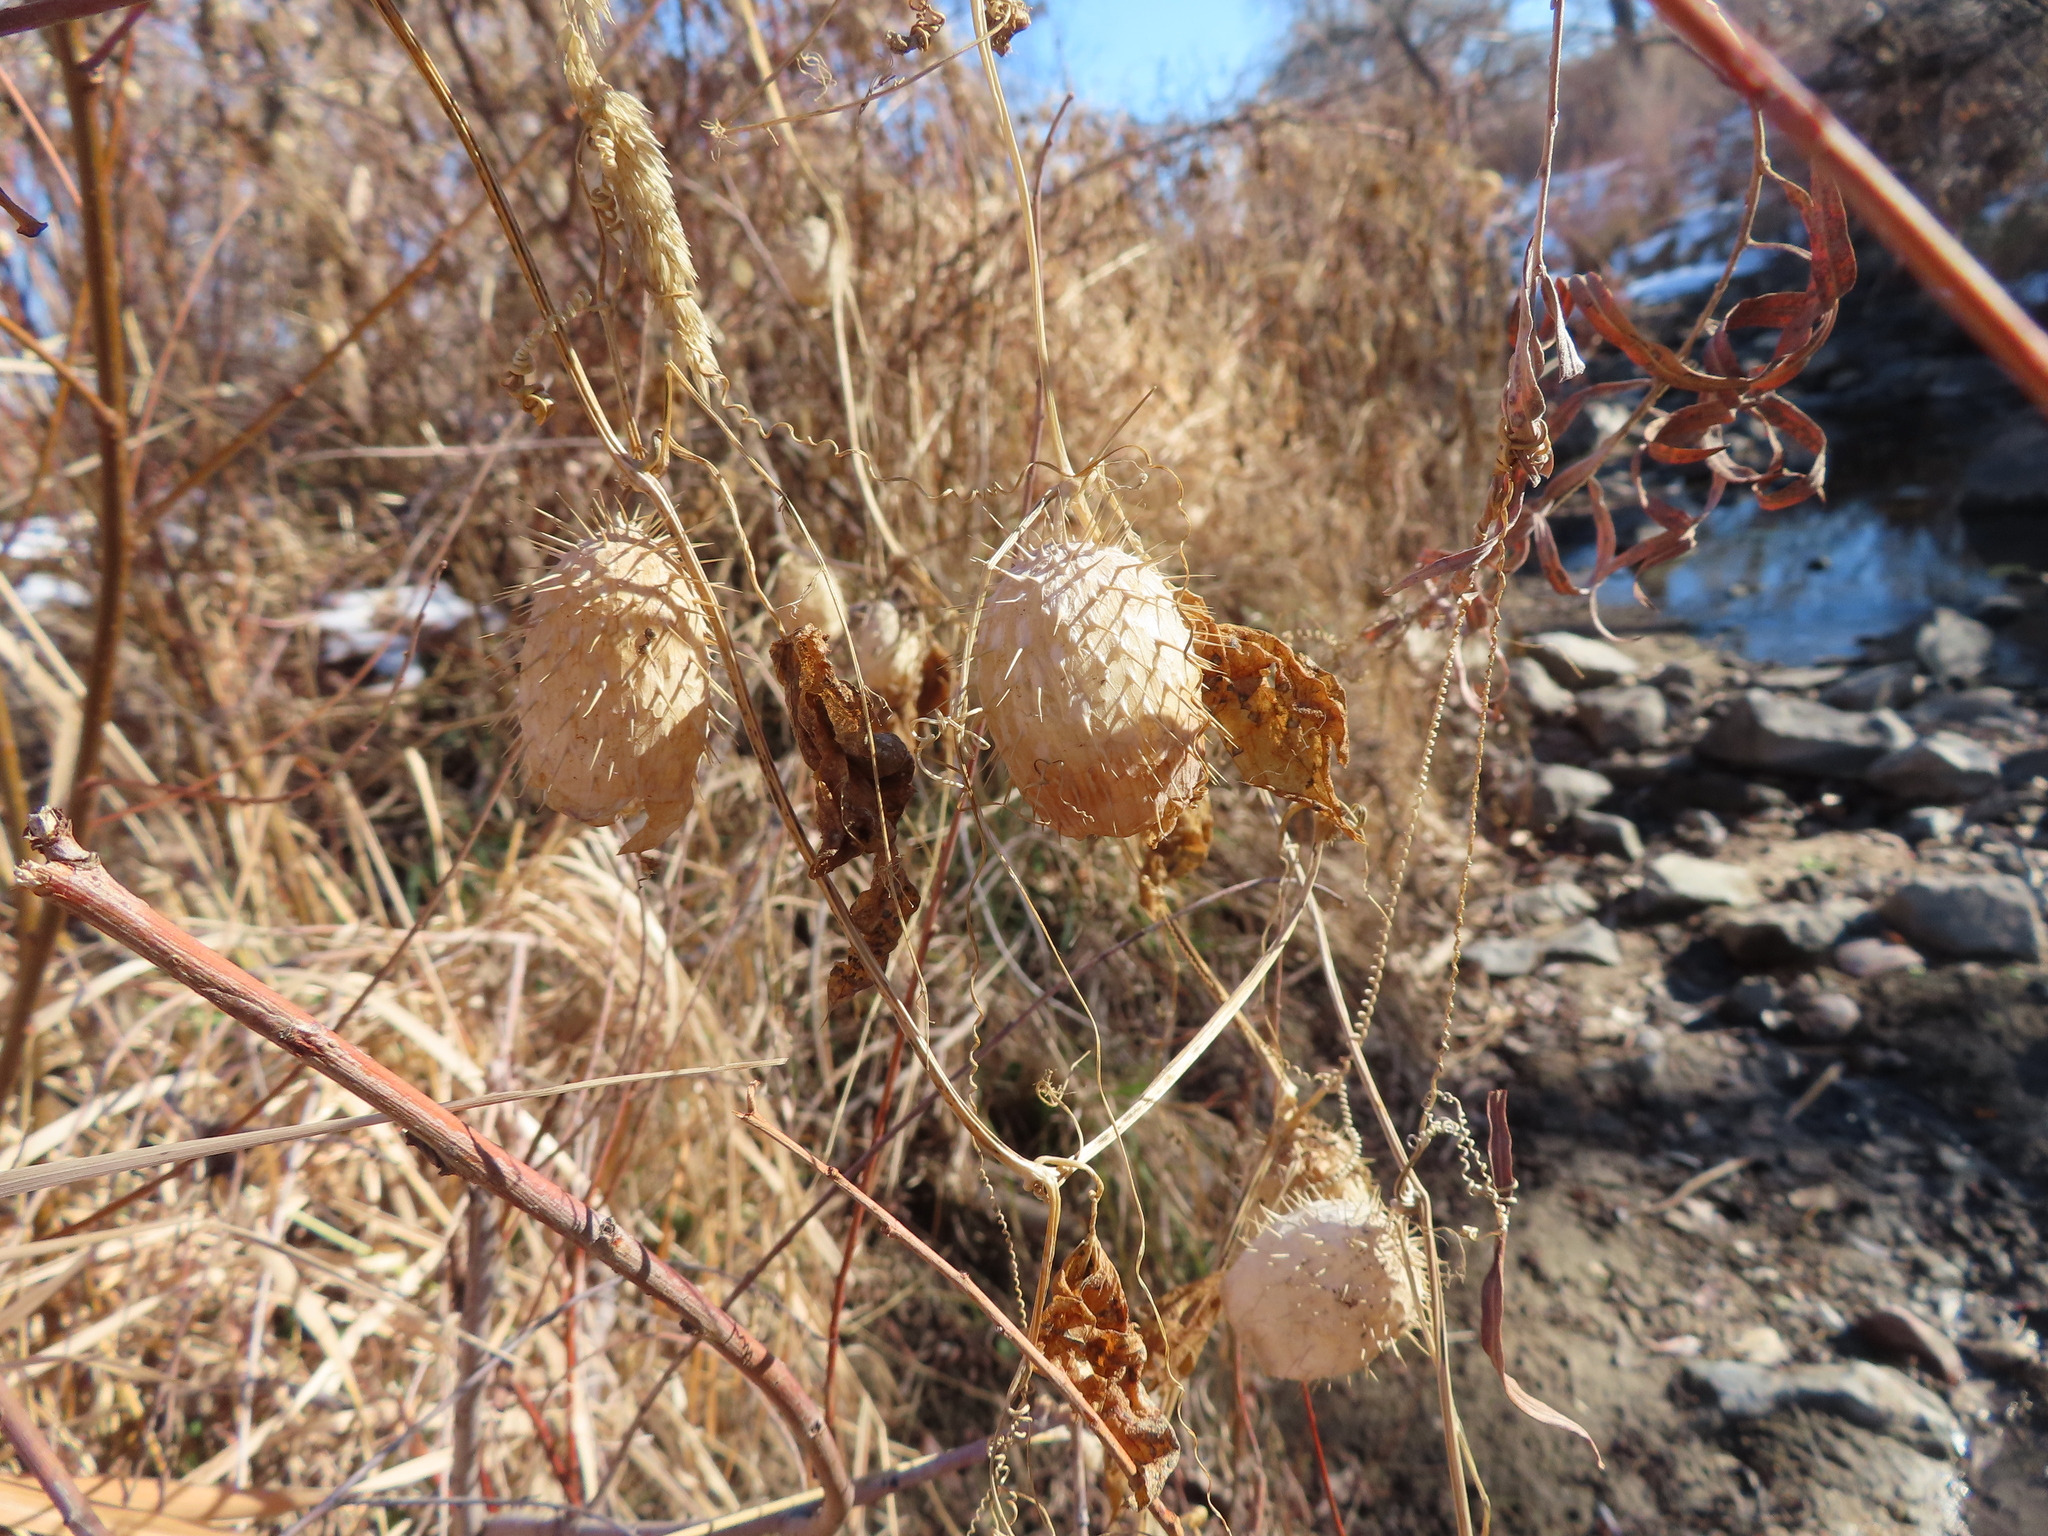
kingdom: Plantae
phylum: Tracheophyta
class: Magnoliopsida
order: Cucurbitales
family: Cucurbitaceae
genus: Echinocystis
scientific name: Echinocystis lobata
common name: Wild cucumber
